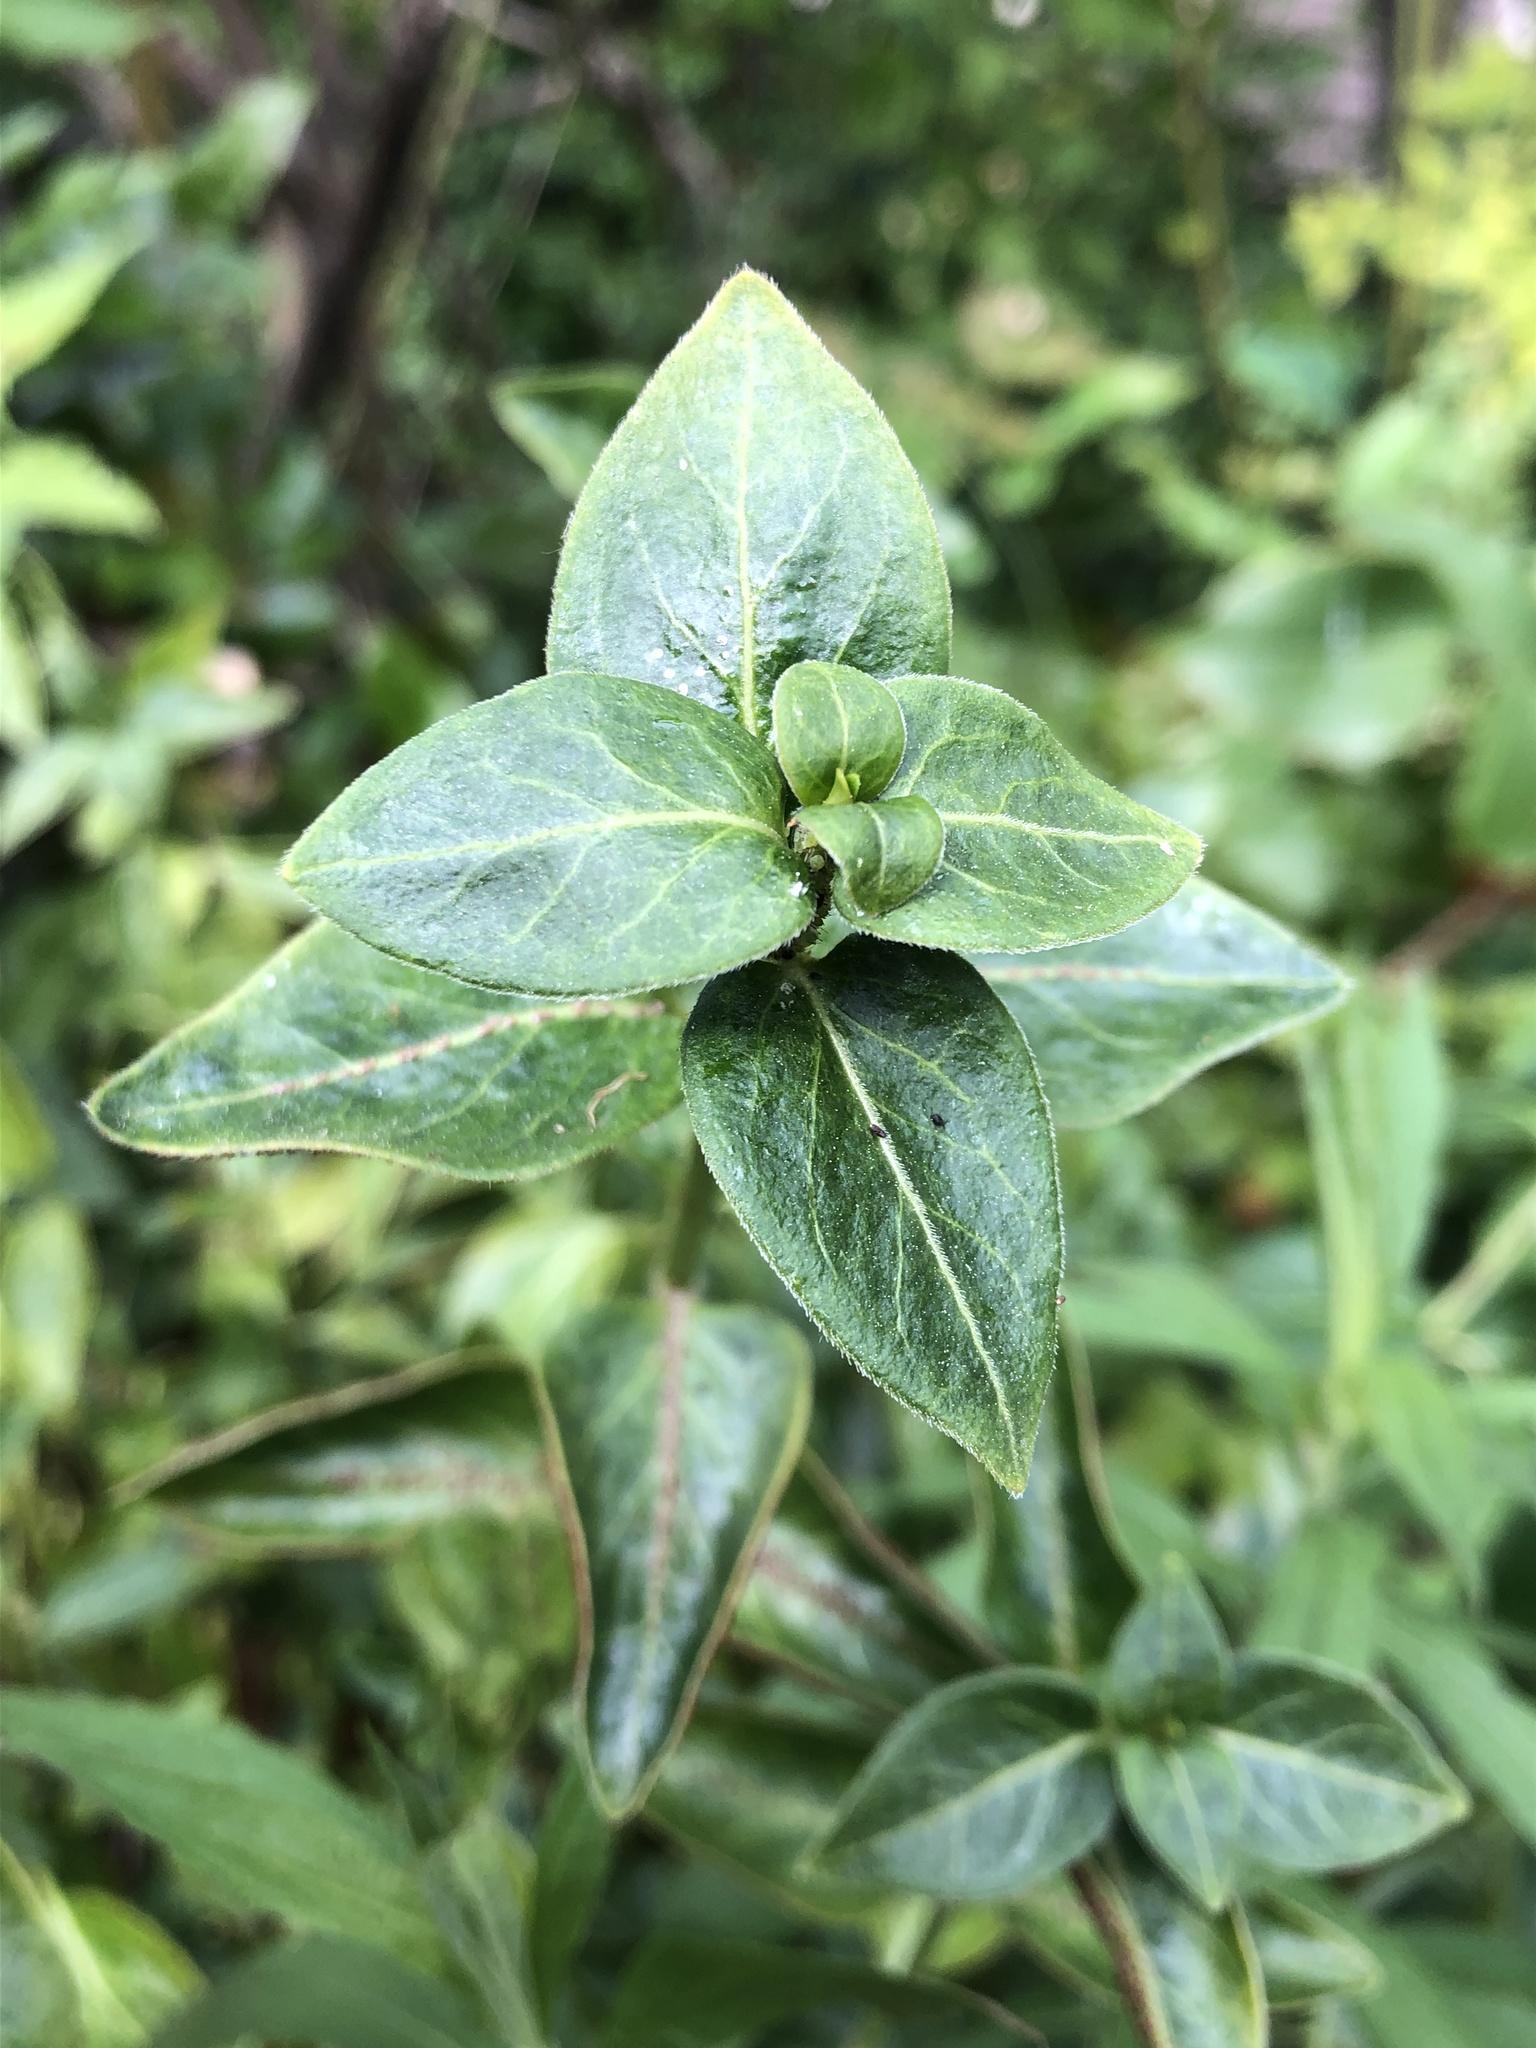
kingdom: Fungi
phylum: Basidiomycota
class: Pucciniomycetes
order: Pucciniales
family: Pucciniaceae
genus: Puccinia
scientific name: Puccinia vincae
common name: Periwinkle rust
